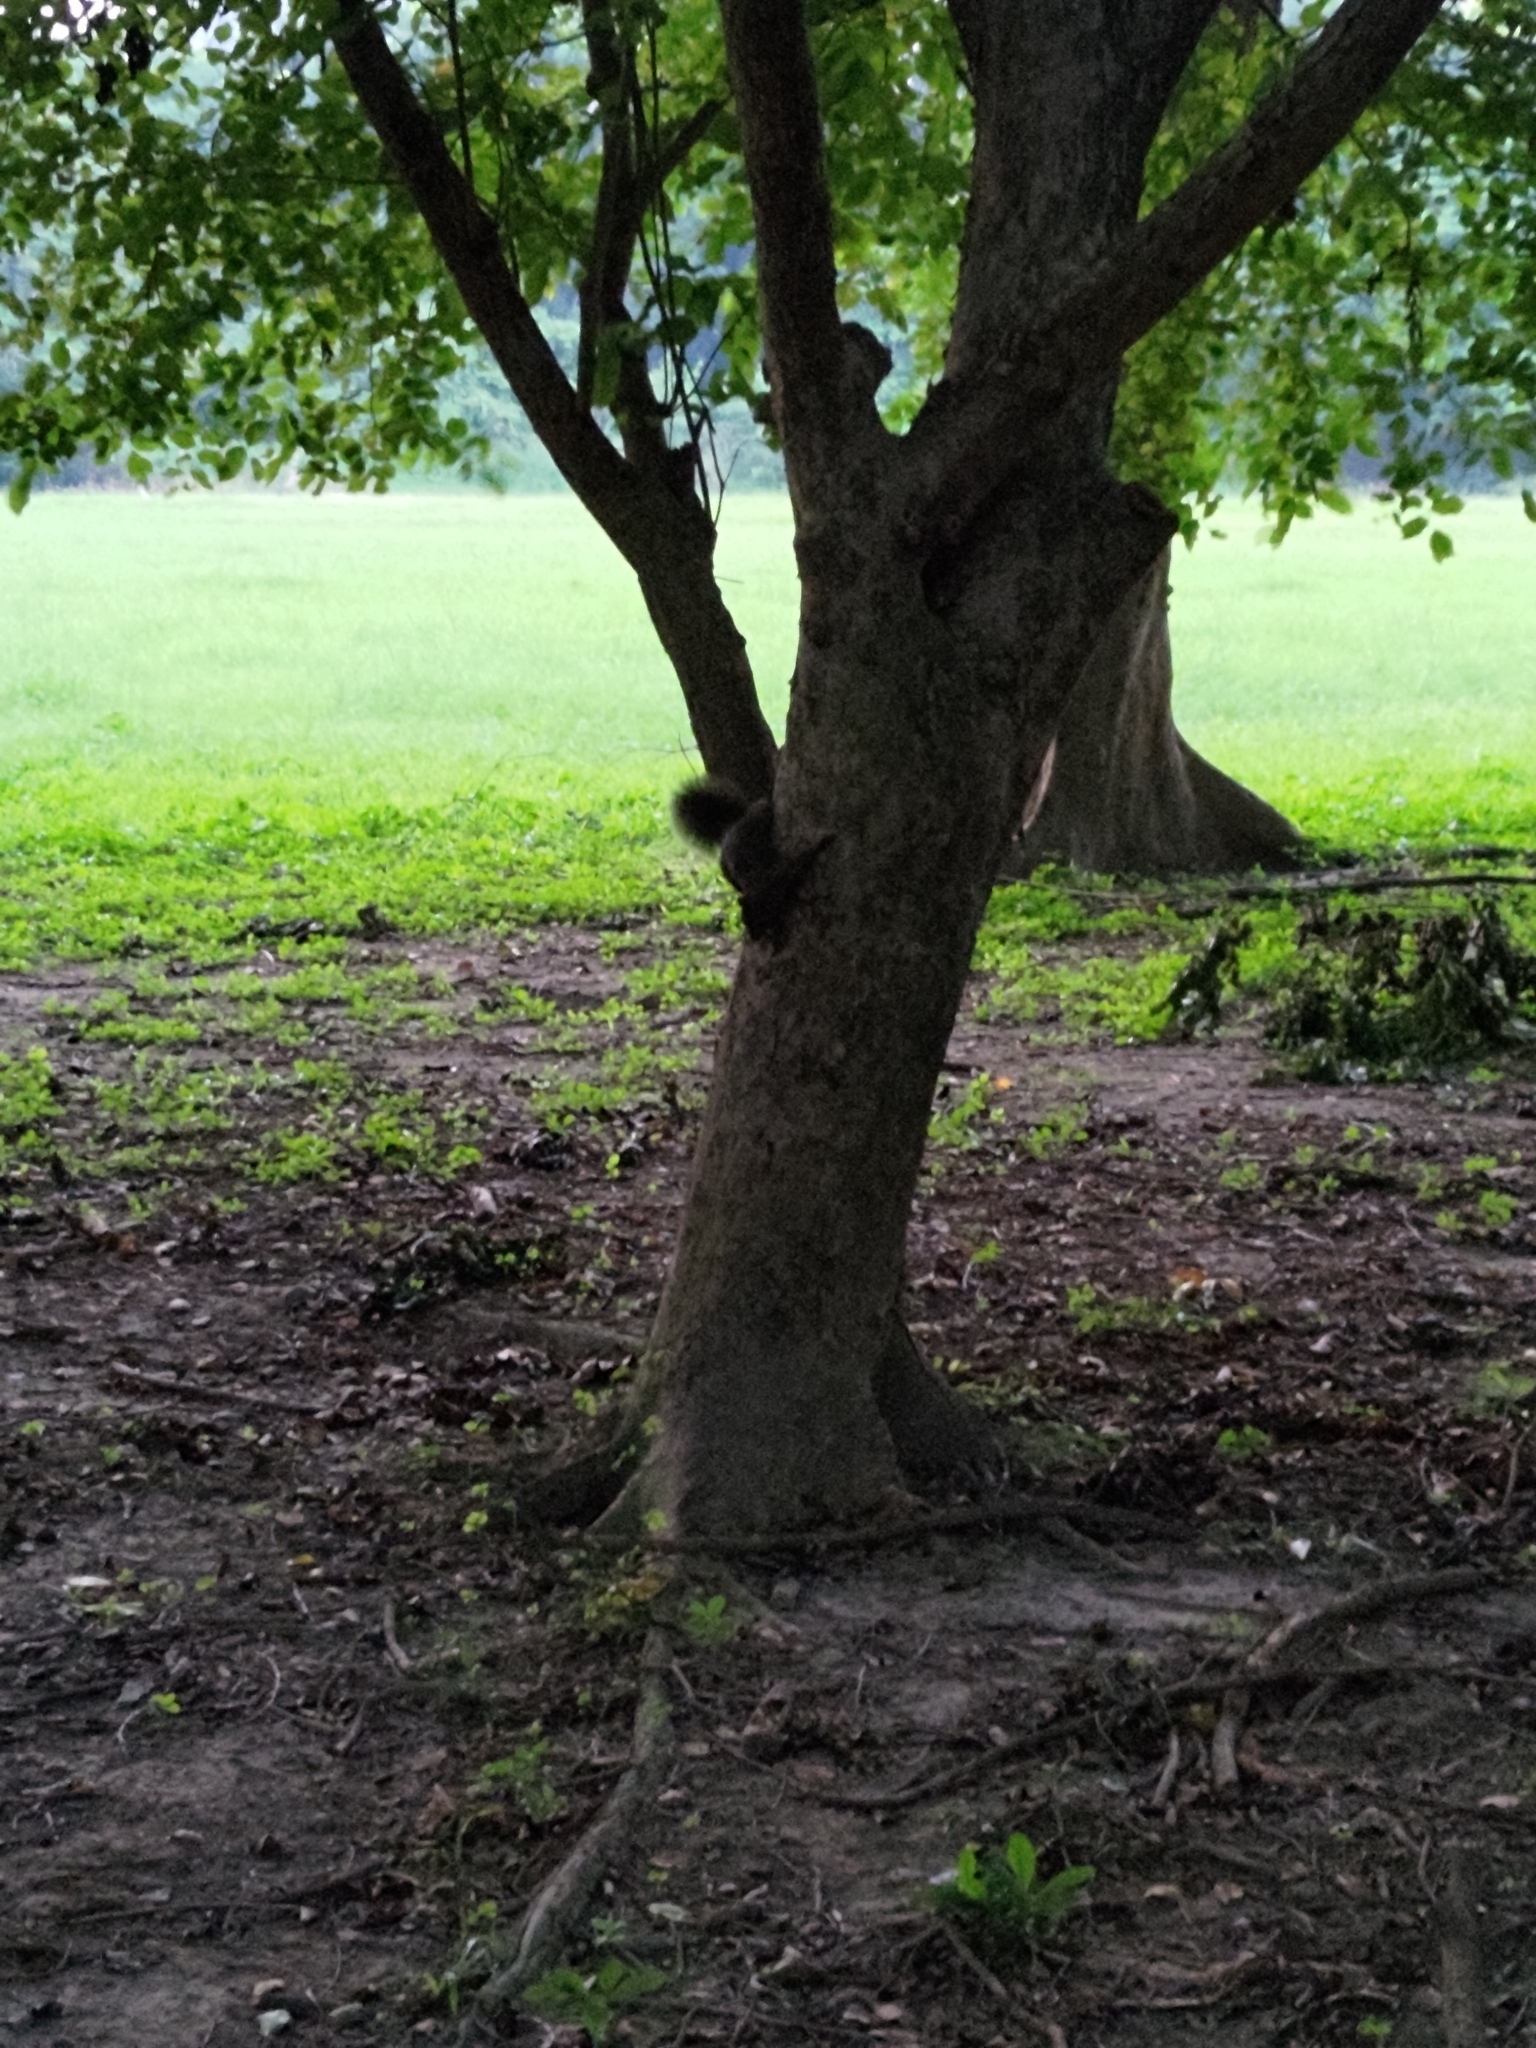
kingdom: Animalia
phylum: Chordata
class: Mammalia
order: Rodentia
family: Sciuridae
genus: Callosciurus
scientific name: Callosciurus erythraeus
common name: Pallas's squirrel
